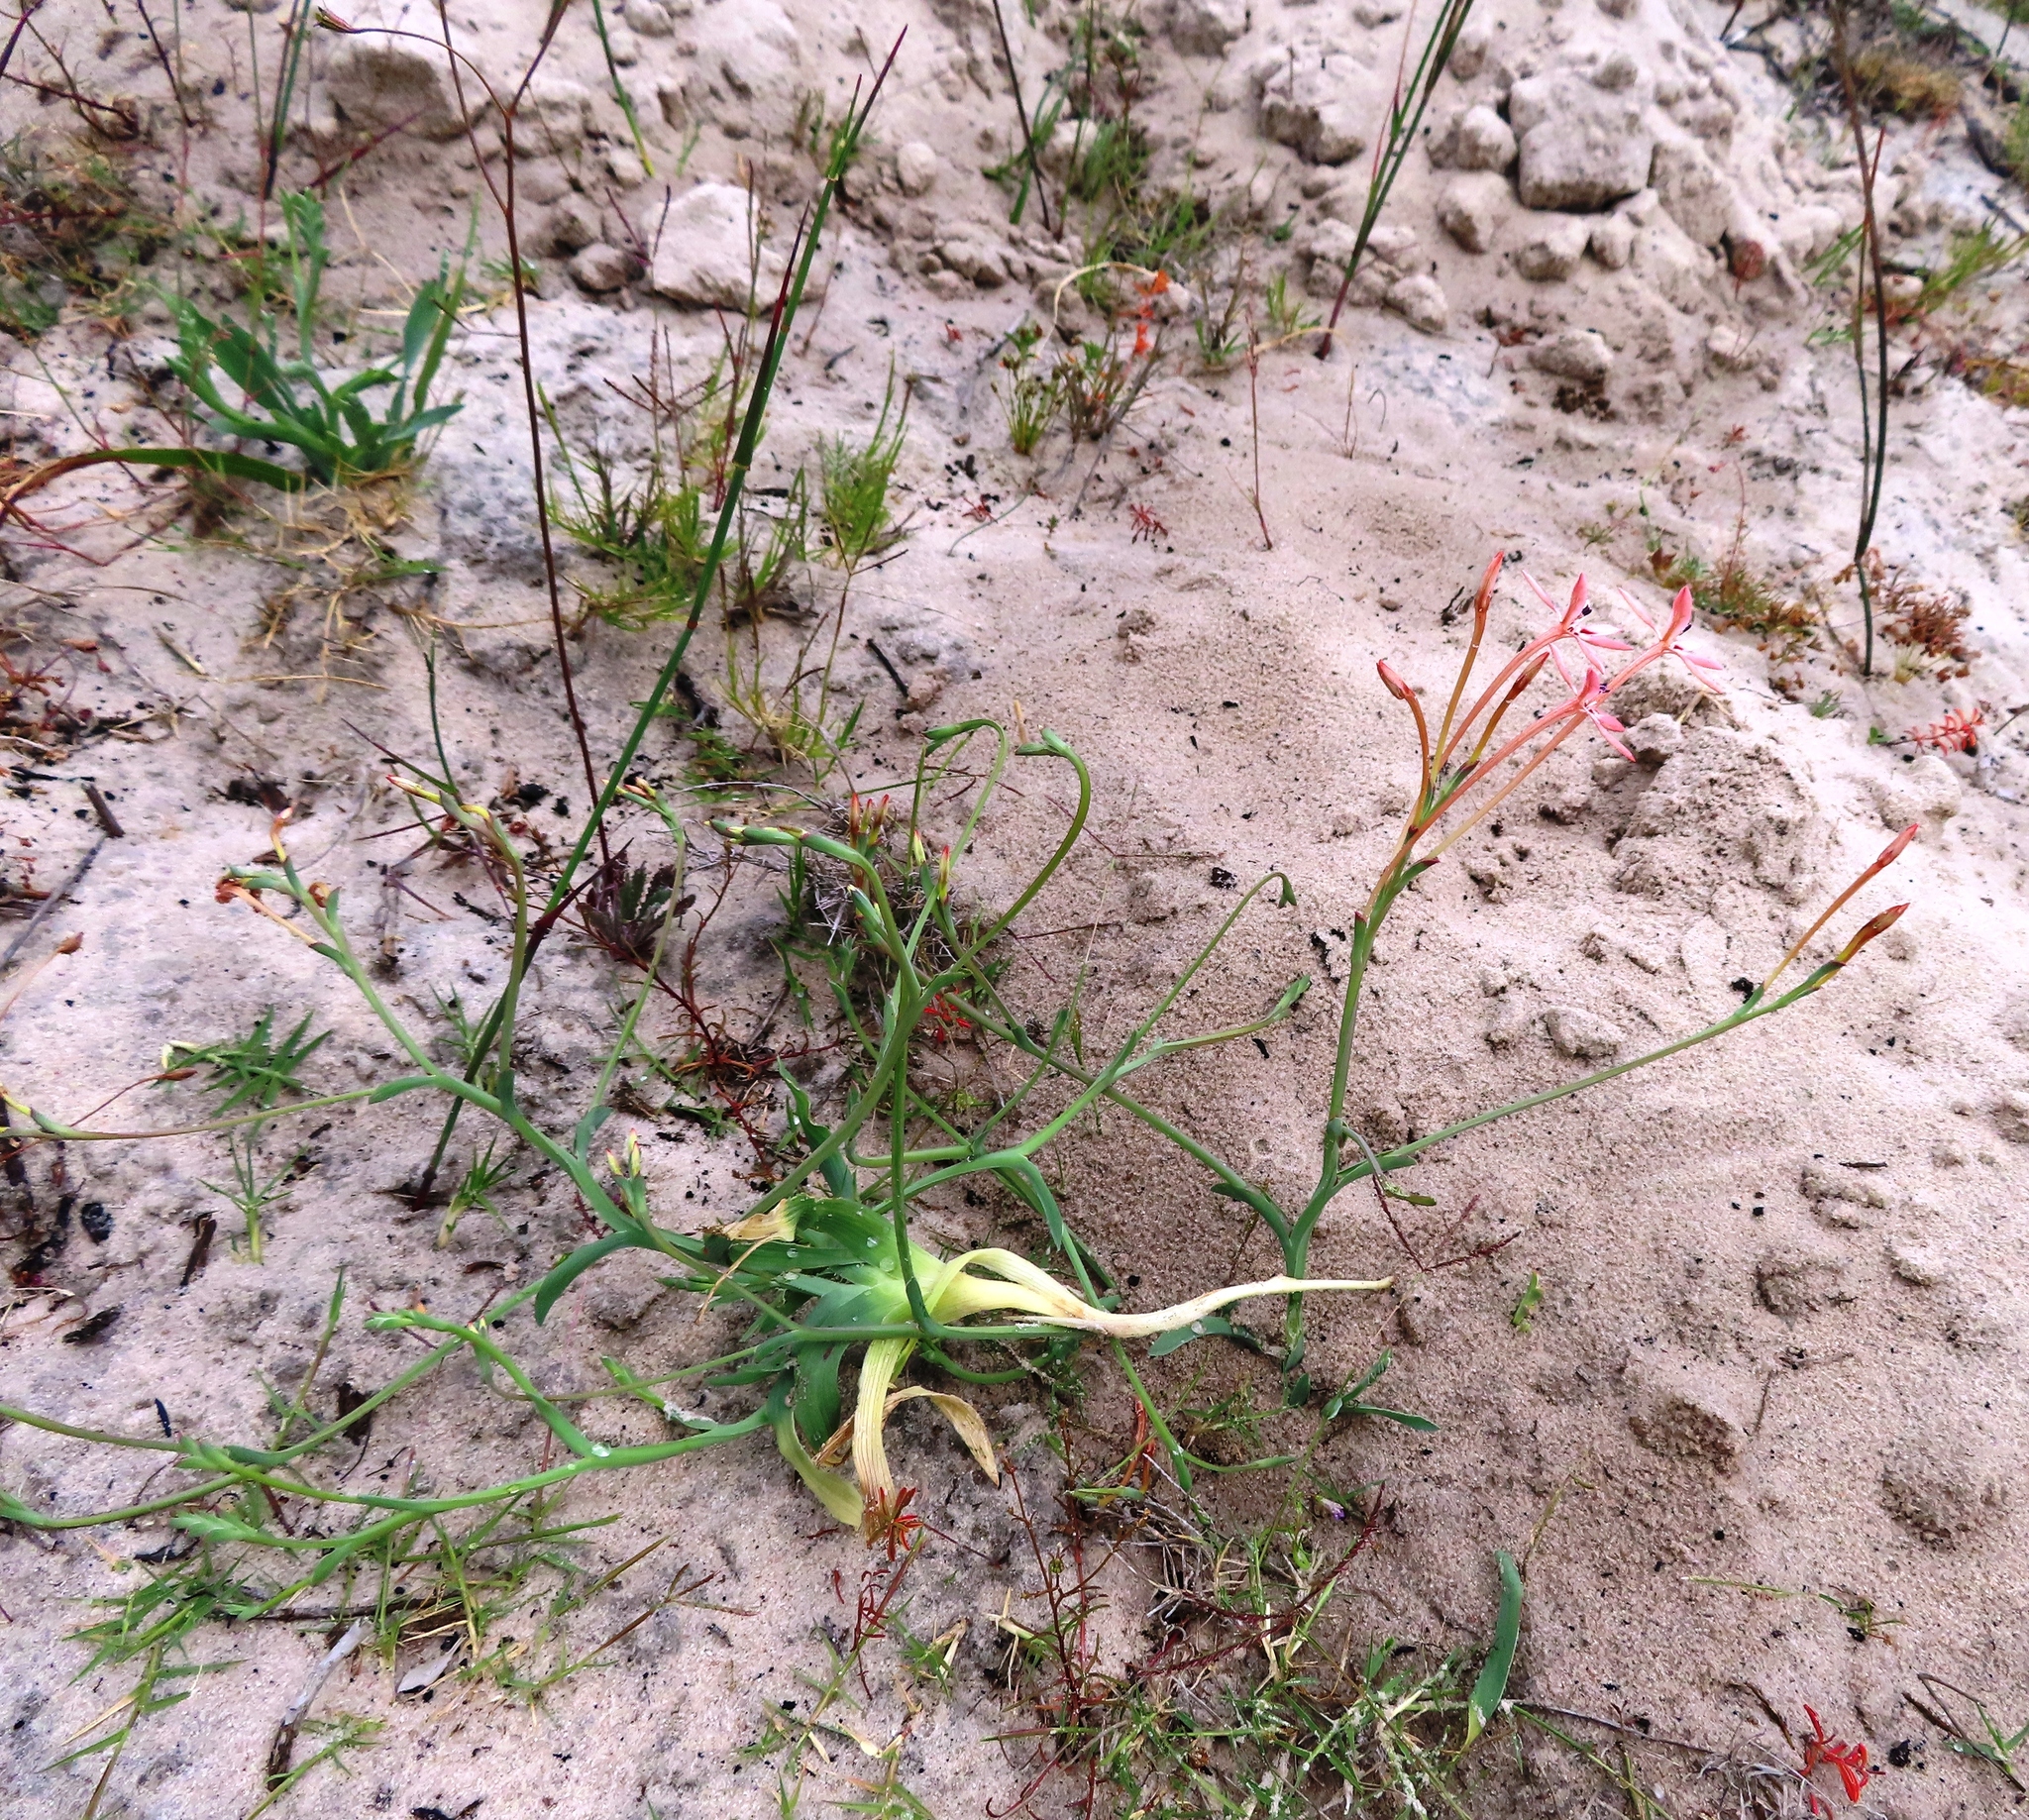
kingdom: Plantae
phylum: Tracheophyta
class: Liliopsida
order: Asparagales
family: Iridaceae
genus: Lapeirousia
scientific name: Lapeirousia anceps
